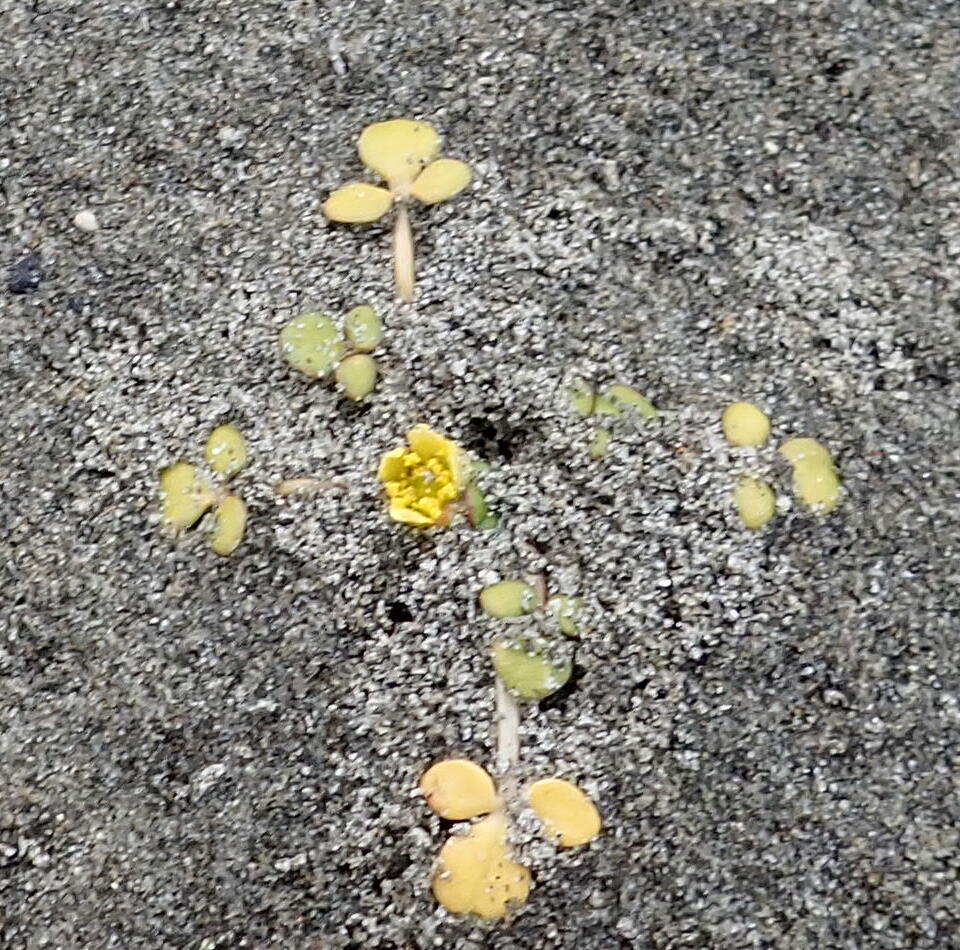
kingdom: Plantae
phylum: Tracheophyta
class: Magnoliopsida
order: Ranunculales
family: Ranunculaceae
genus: Ranunculus
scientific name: Ranunculus acaulis
